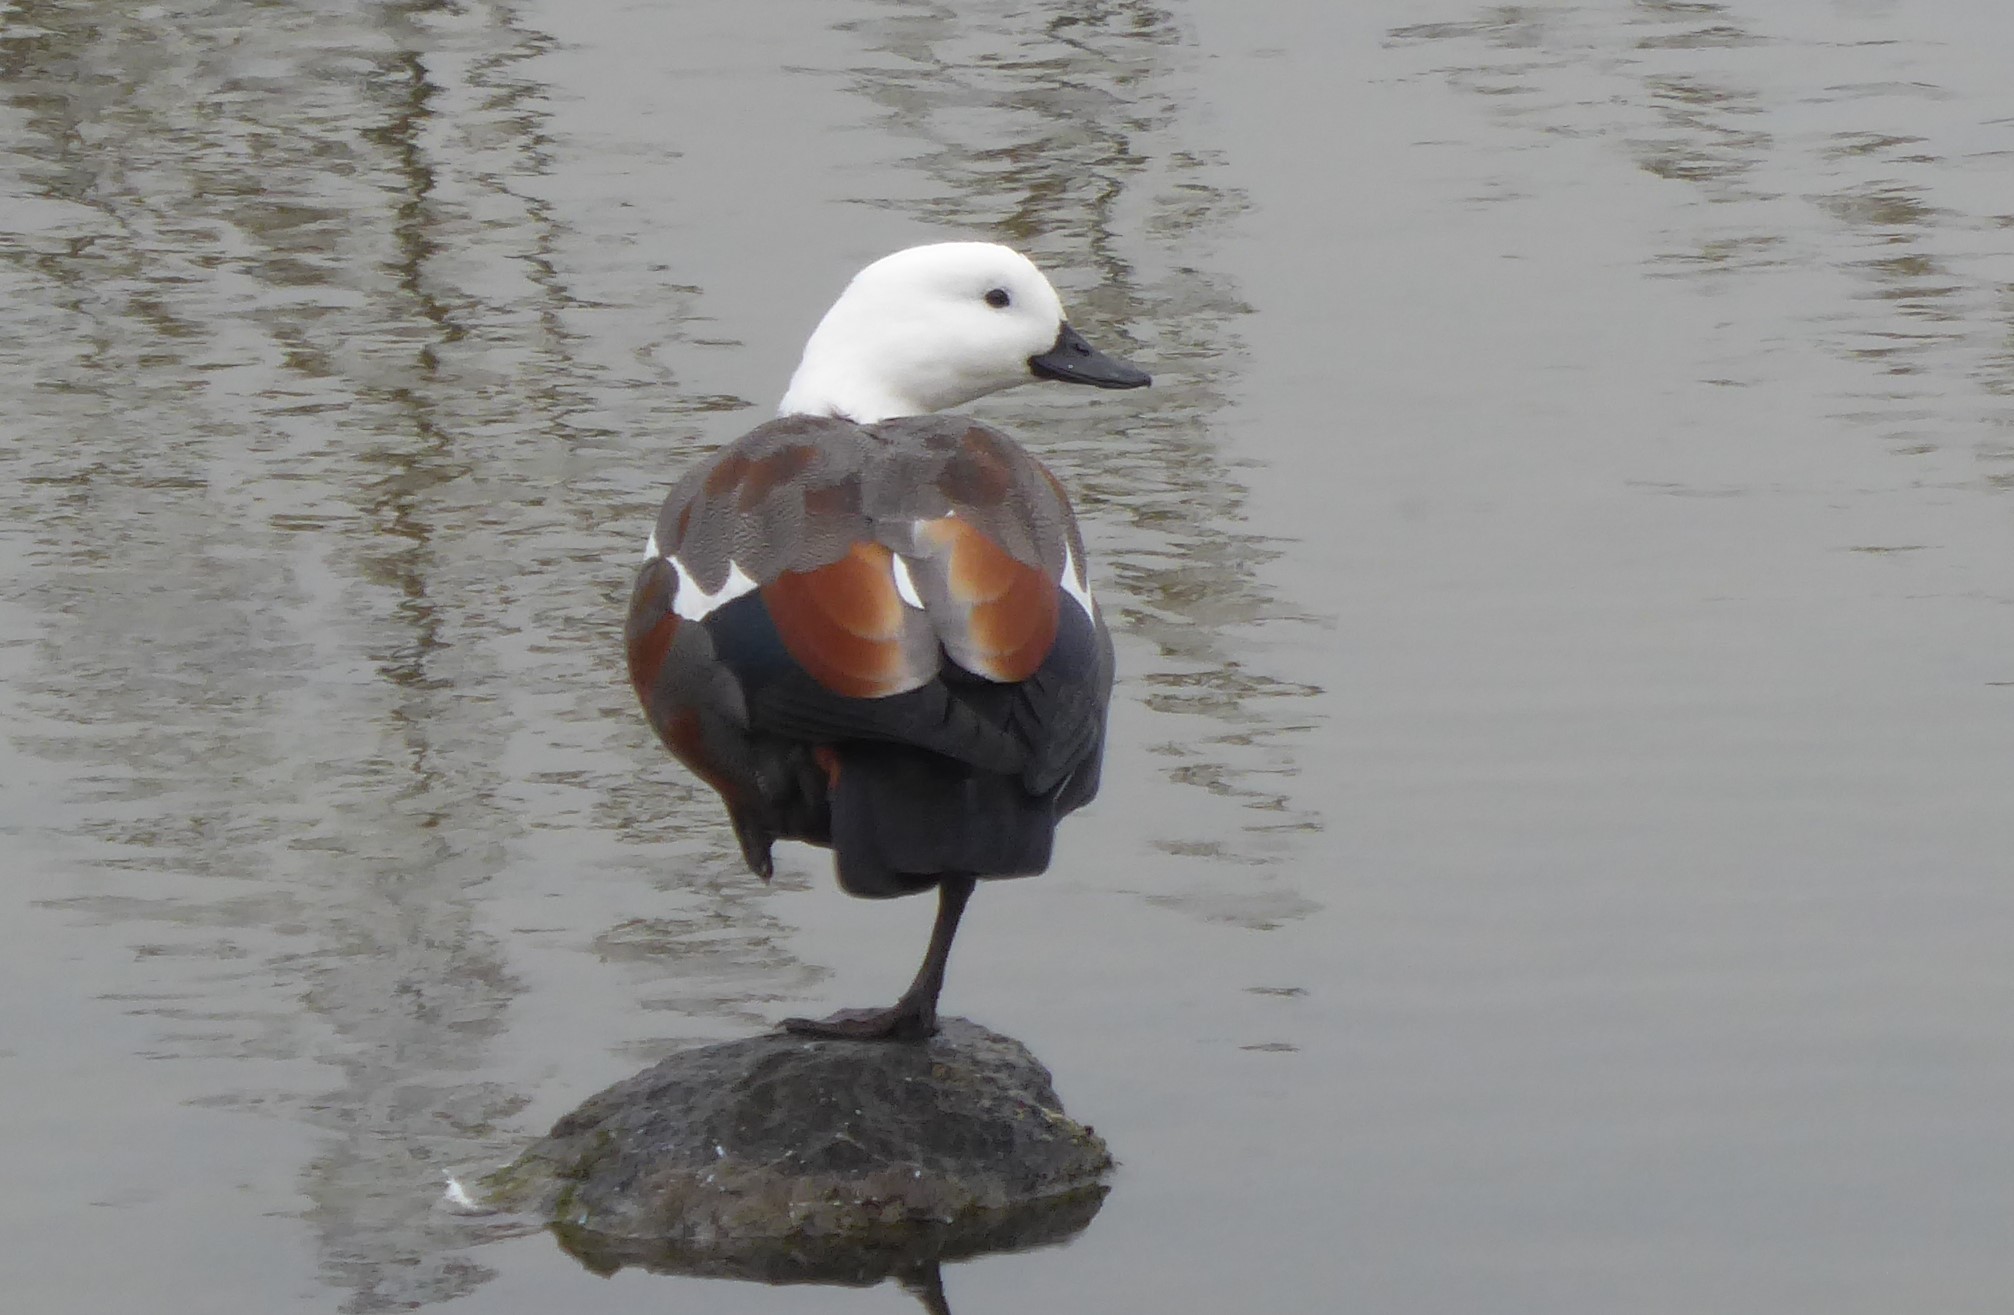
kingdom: Animalia
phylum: Chordata
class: Aves
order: Anseriformes
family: Anatidae
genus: Tadorna
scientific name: Tadorna variegata
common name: Paradise shelduck
